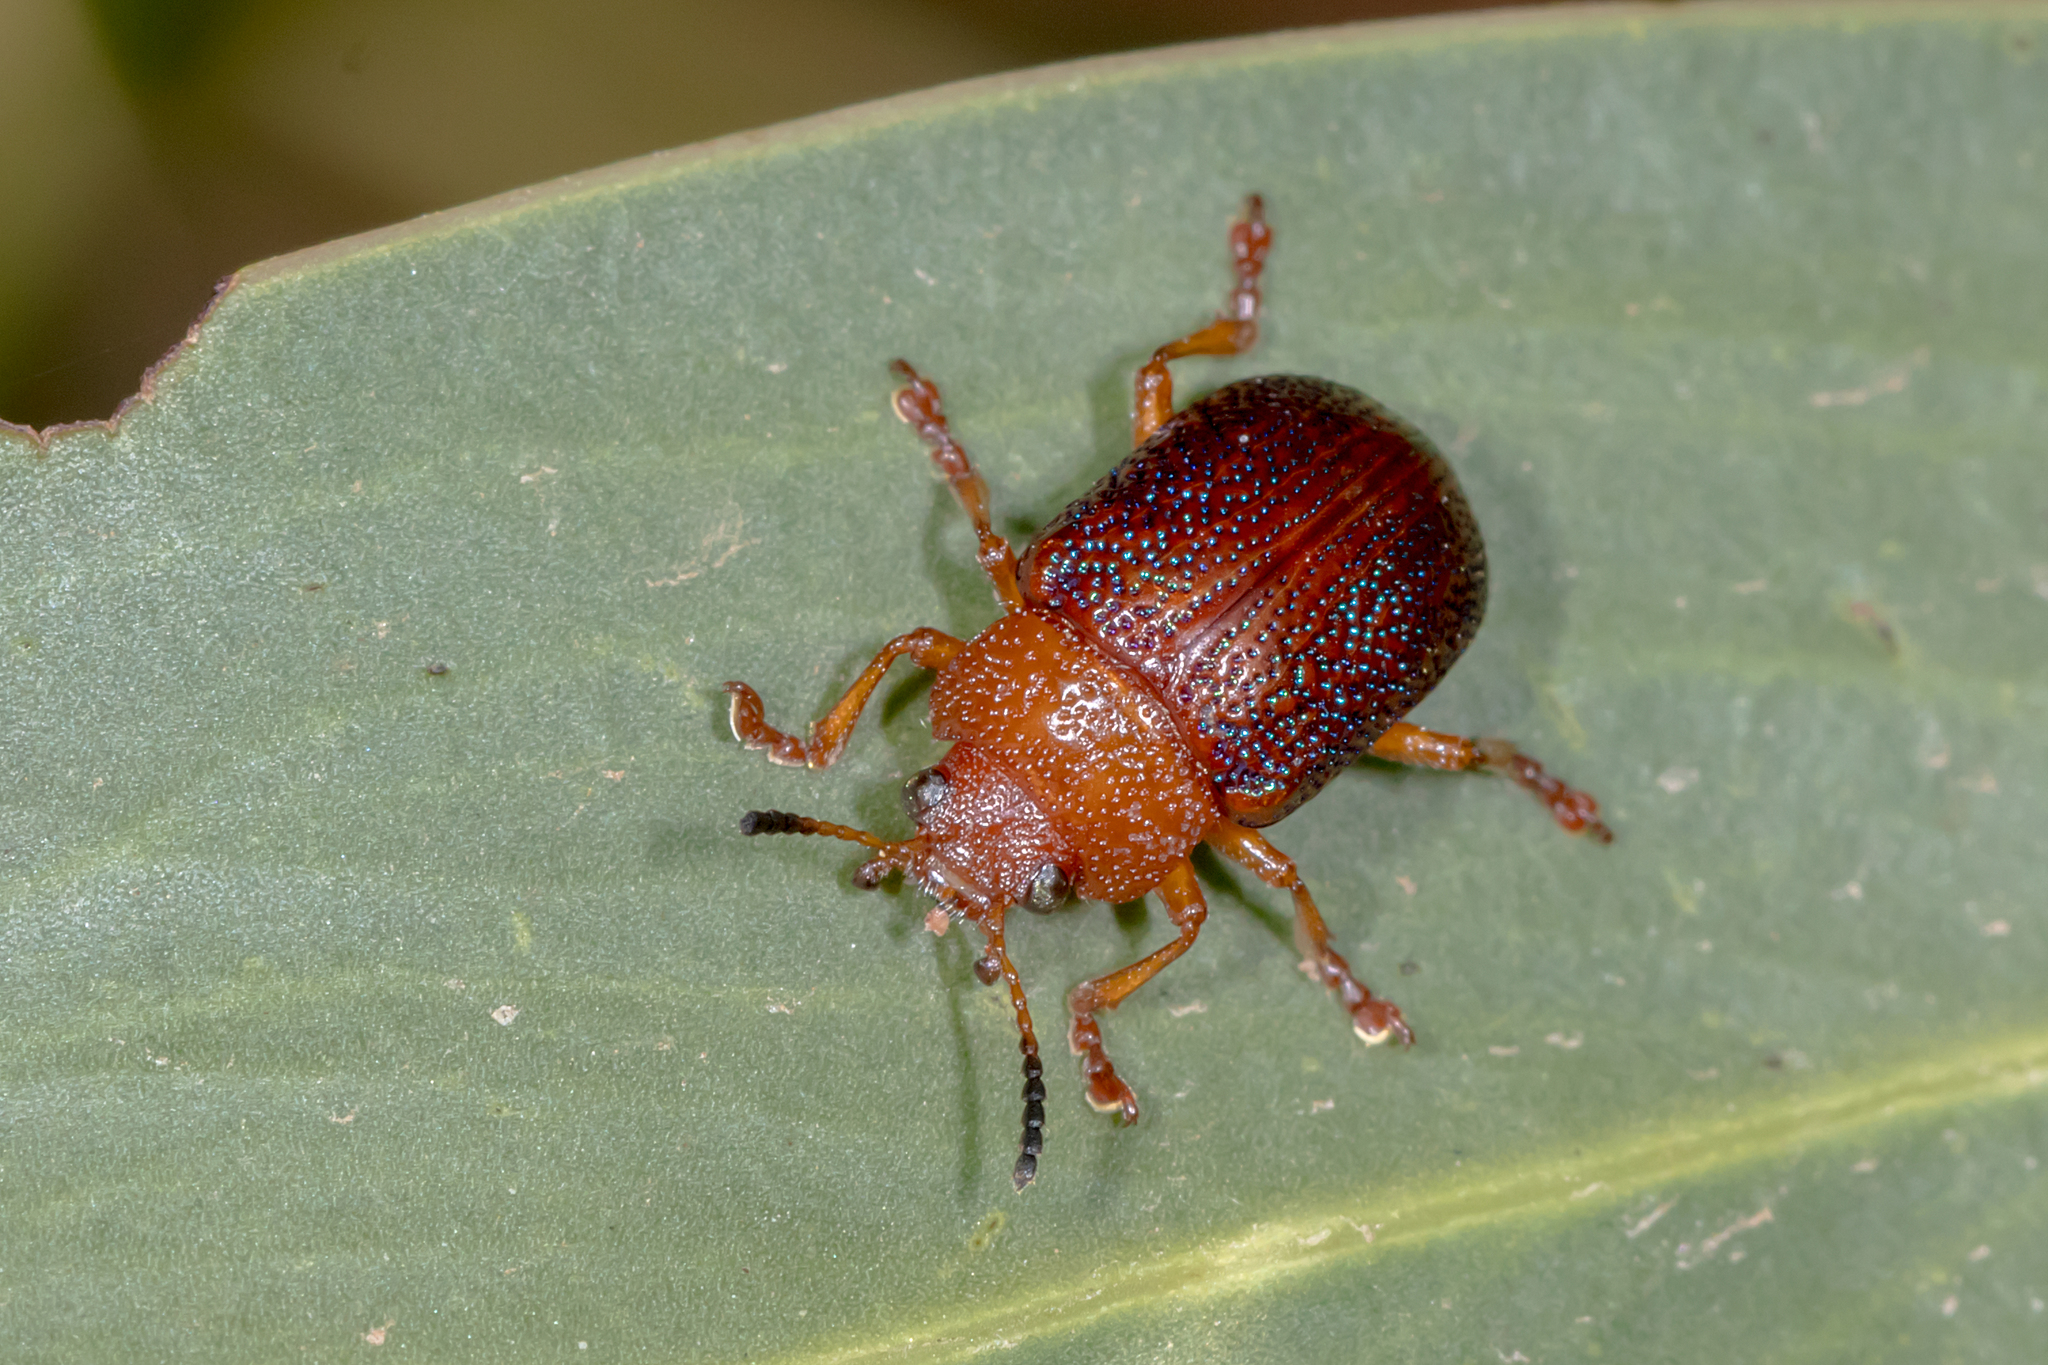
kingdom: Animalia
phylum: Arthropoda
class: Insecta
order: Coleoptera
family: Chrysomelidae
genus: Calomela
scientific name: Calomela
